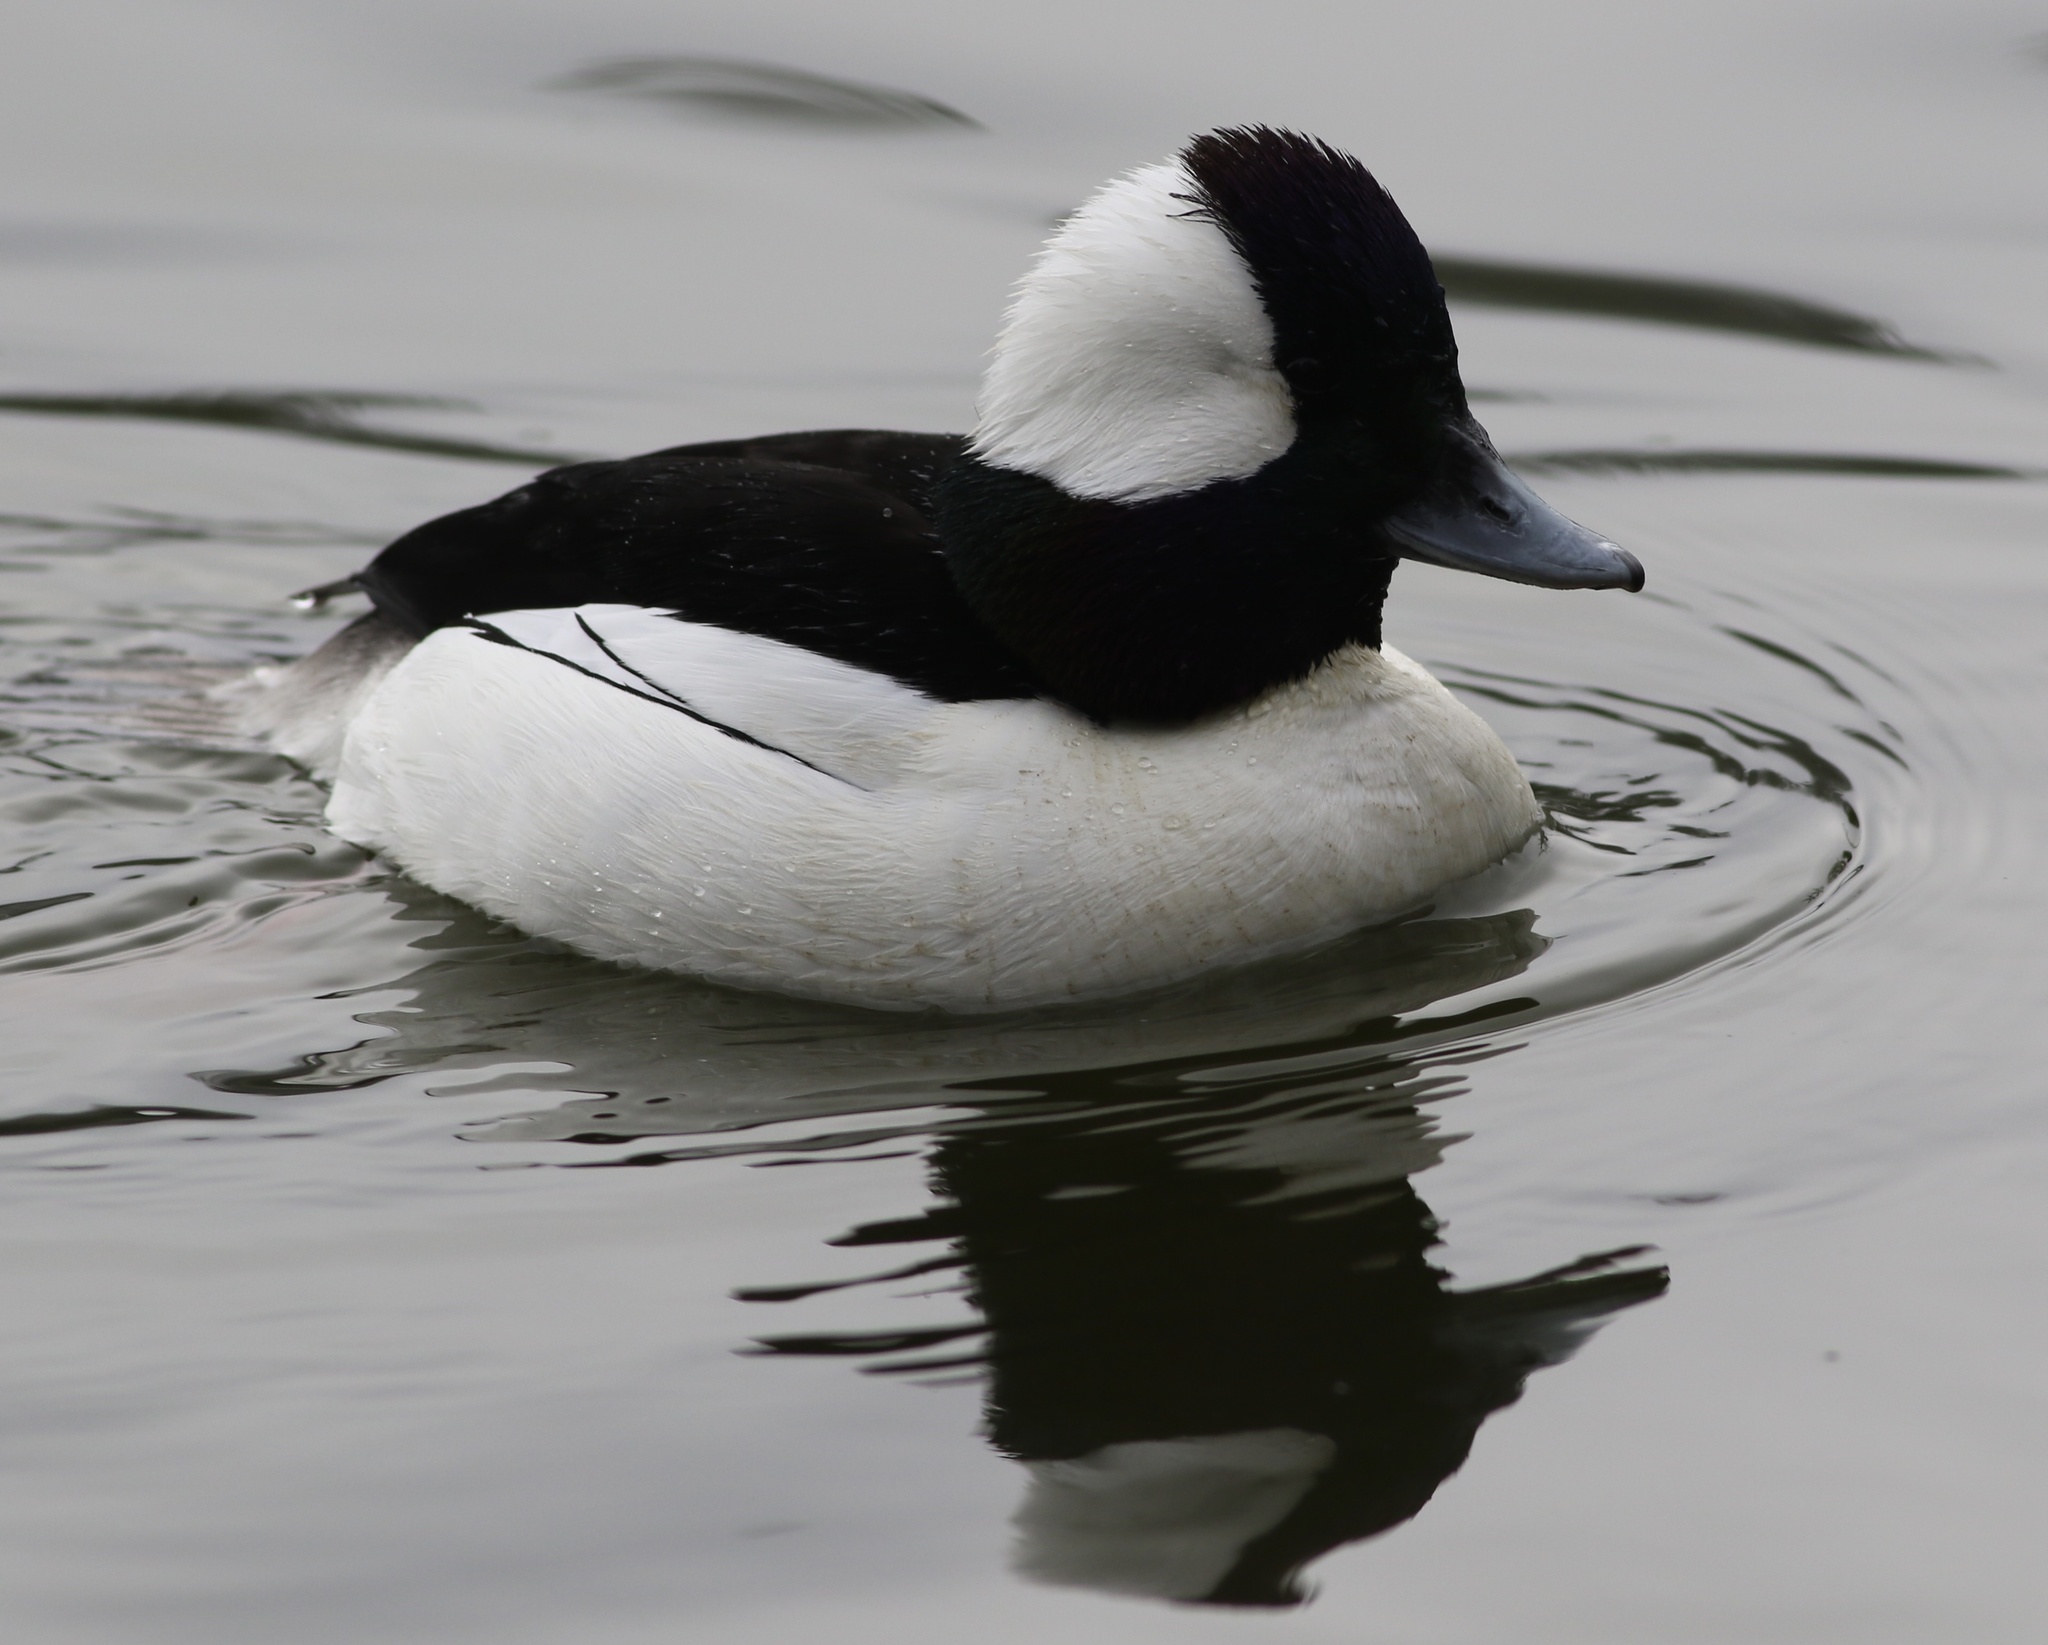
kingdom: Animalia
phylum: Chordata
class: Aves
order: Anseriformes
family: Anatidae
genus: Bucephala
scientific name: Bucephala albeola
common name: Bufflehead
